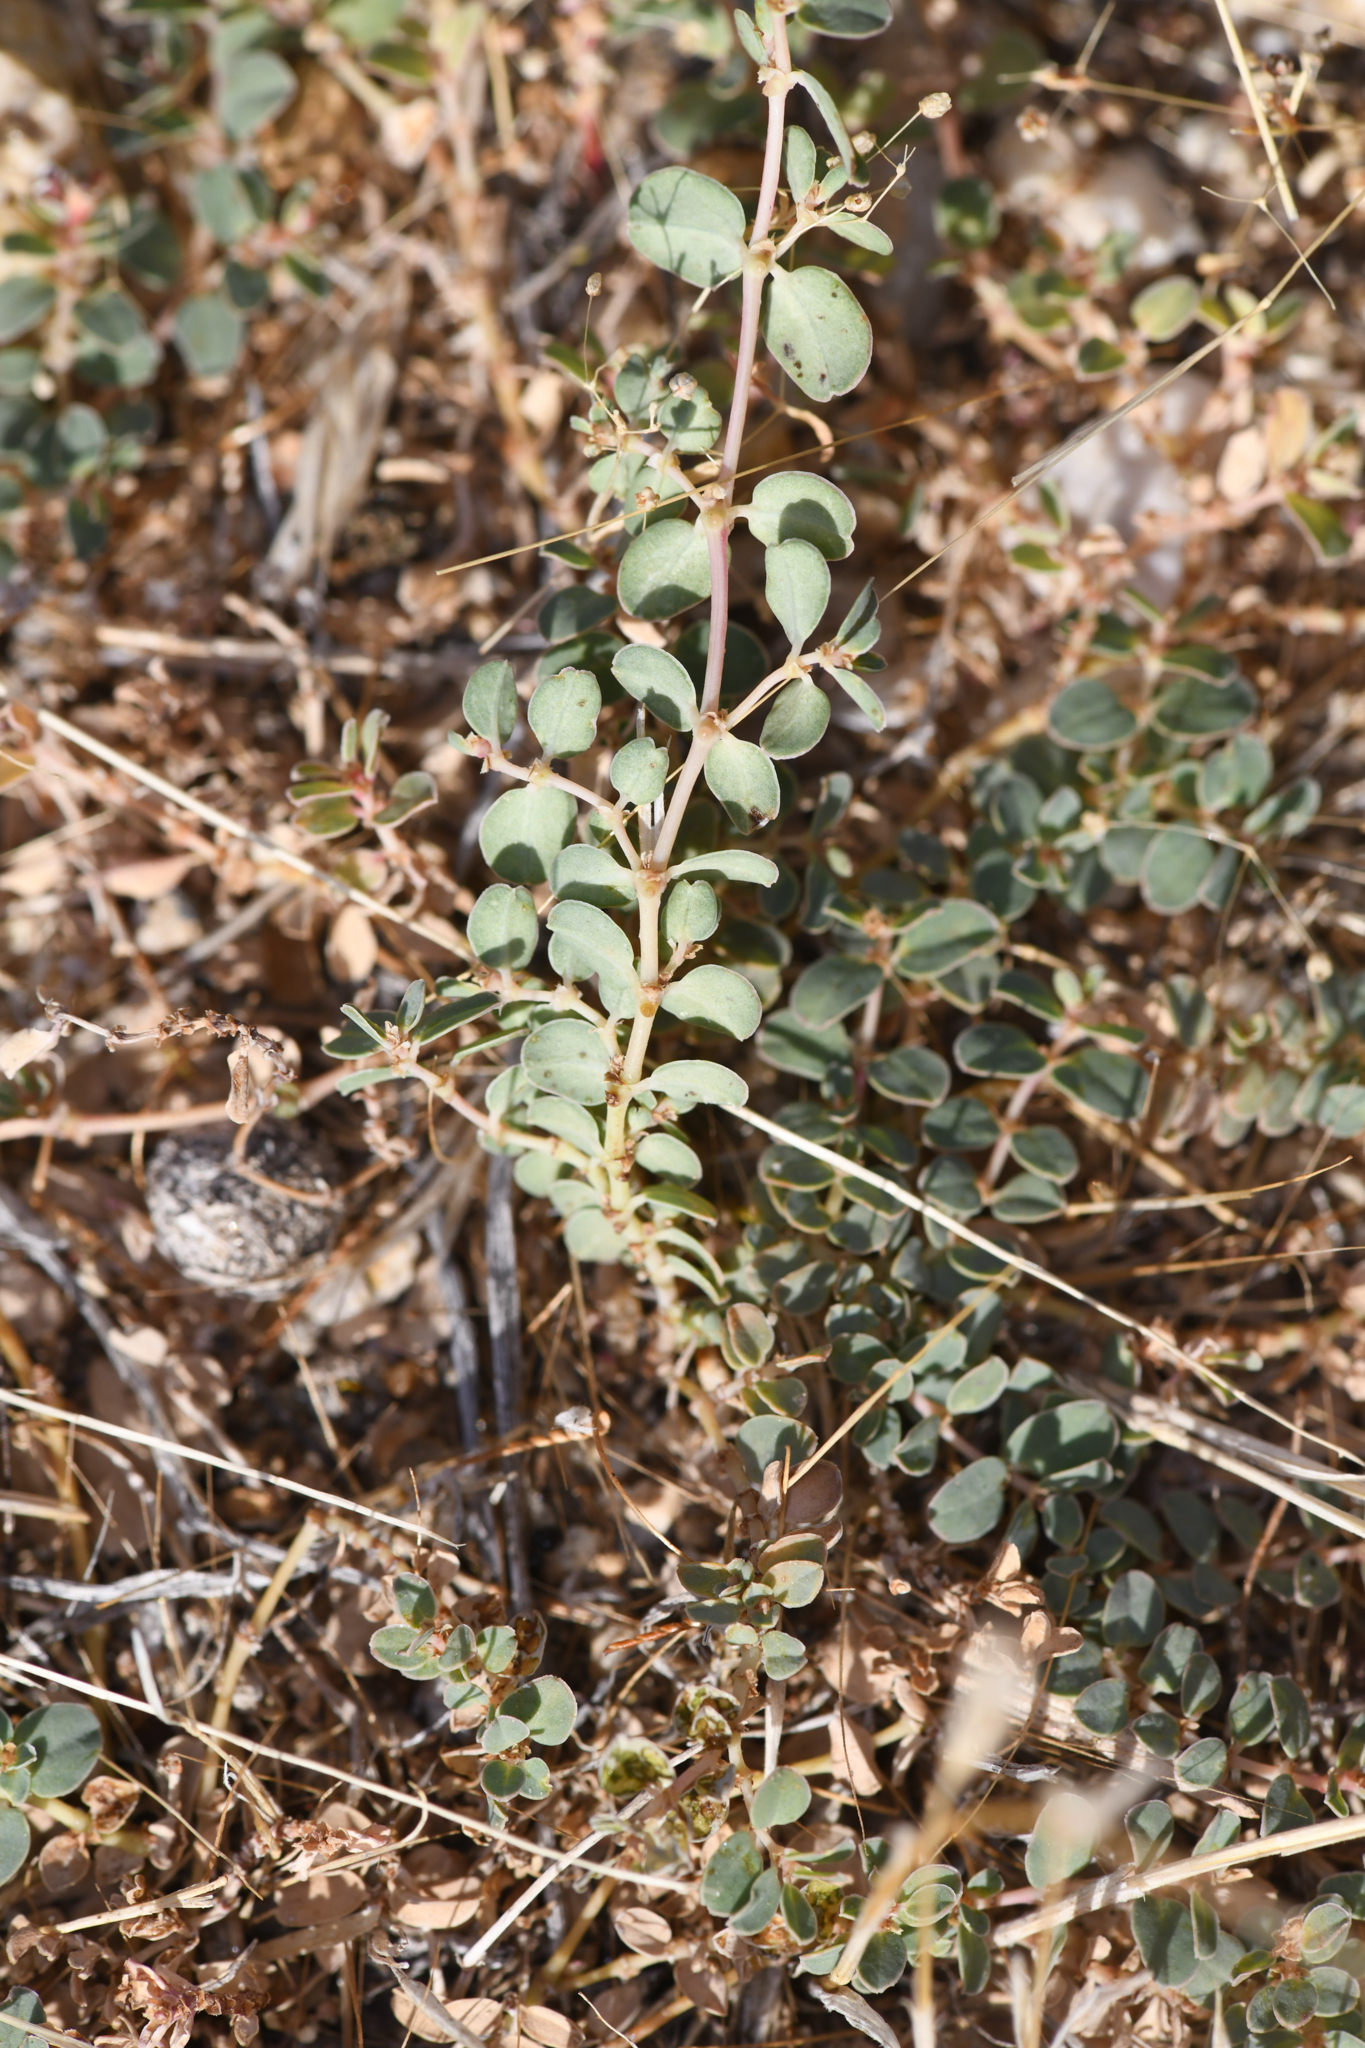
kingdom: Plantae
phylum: Tracheophyta
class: Magnoliopsida
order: Malpighiales
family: Euphorbiaceae
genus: Euphorbia
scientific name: Euphorbia albomarginata
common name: Whitemargin sandmat
